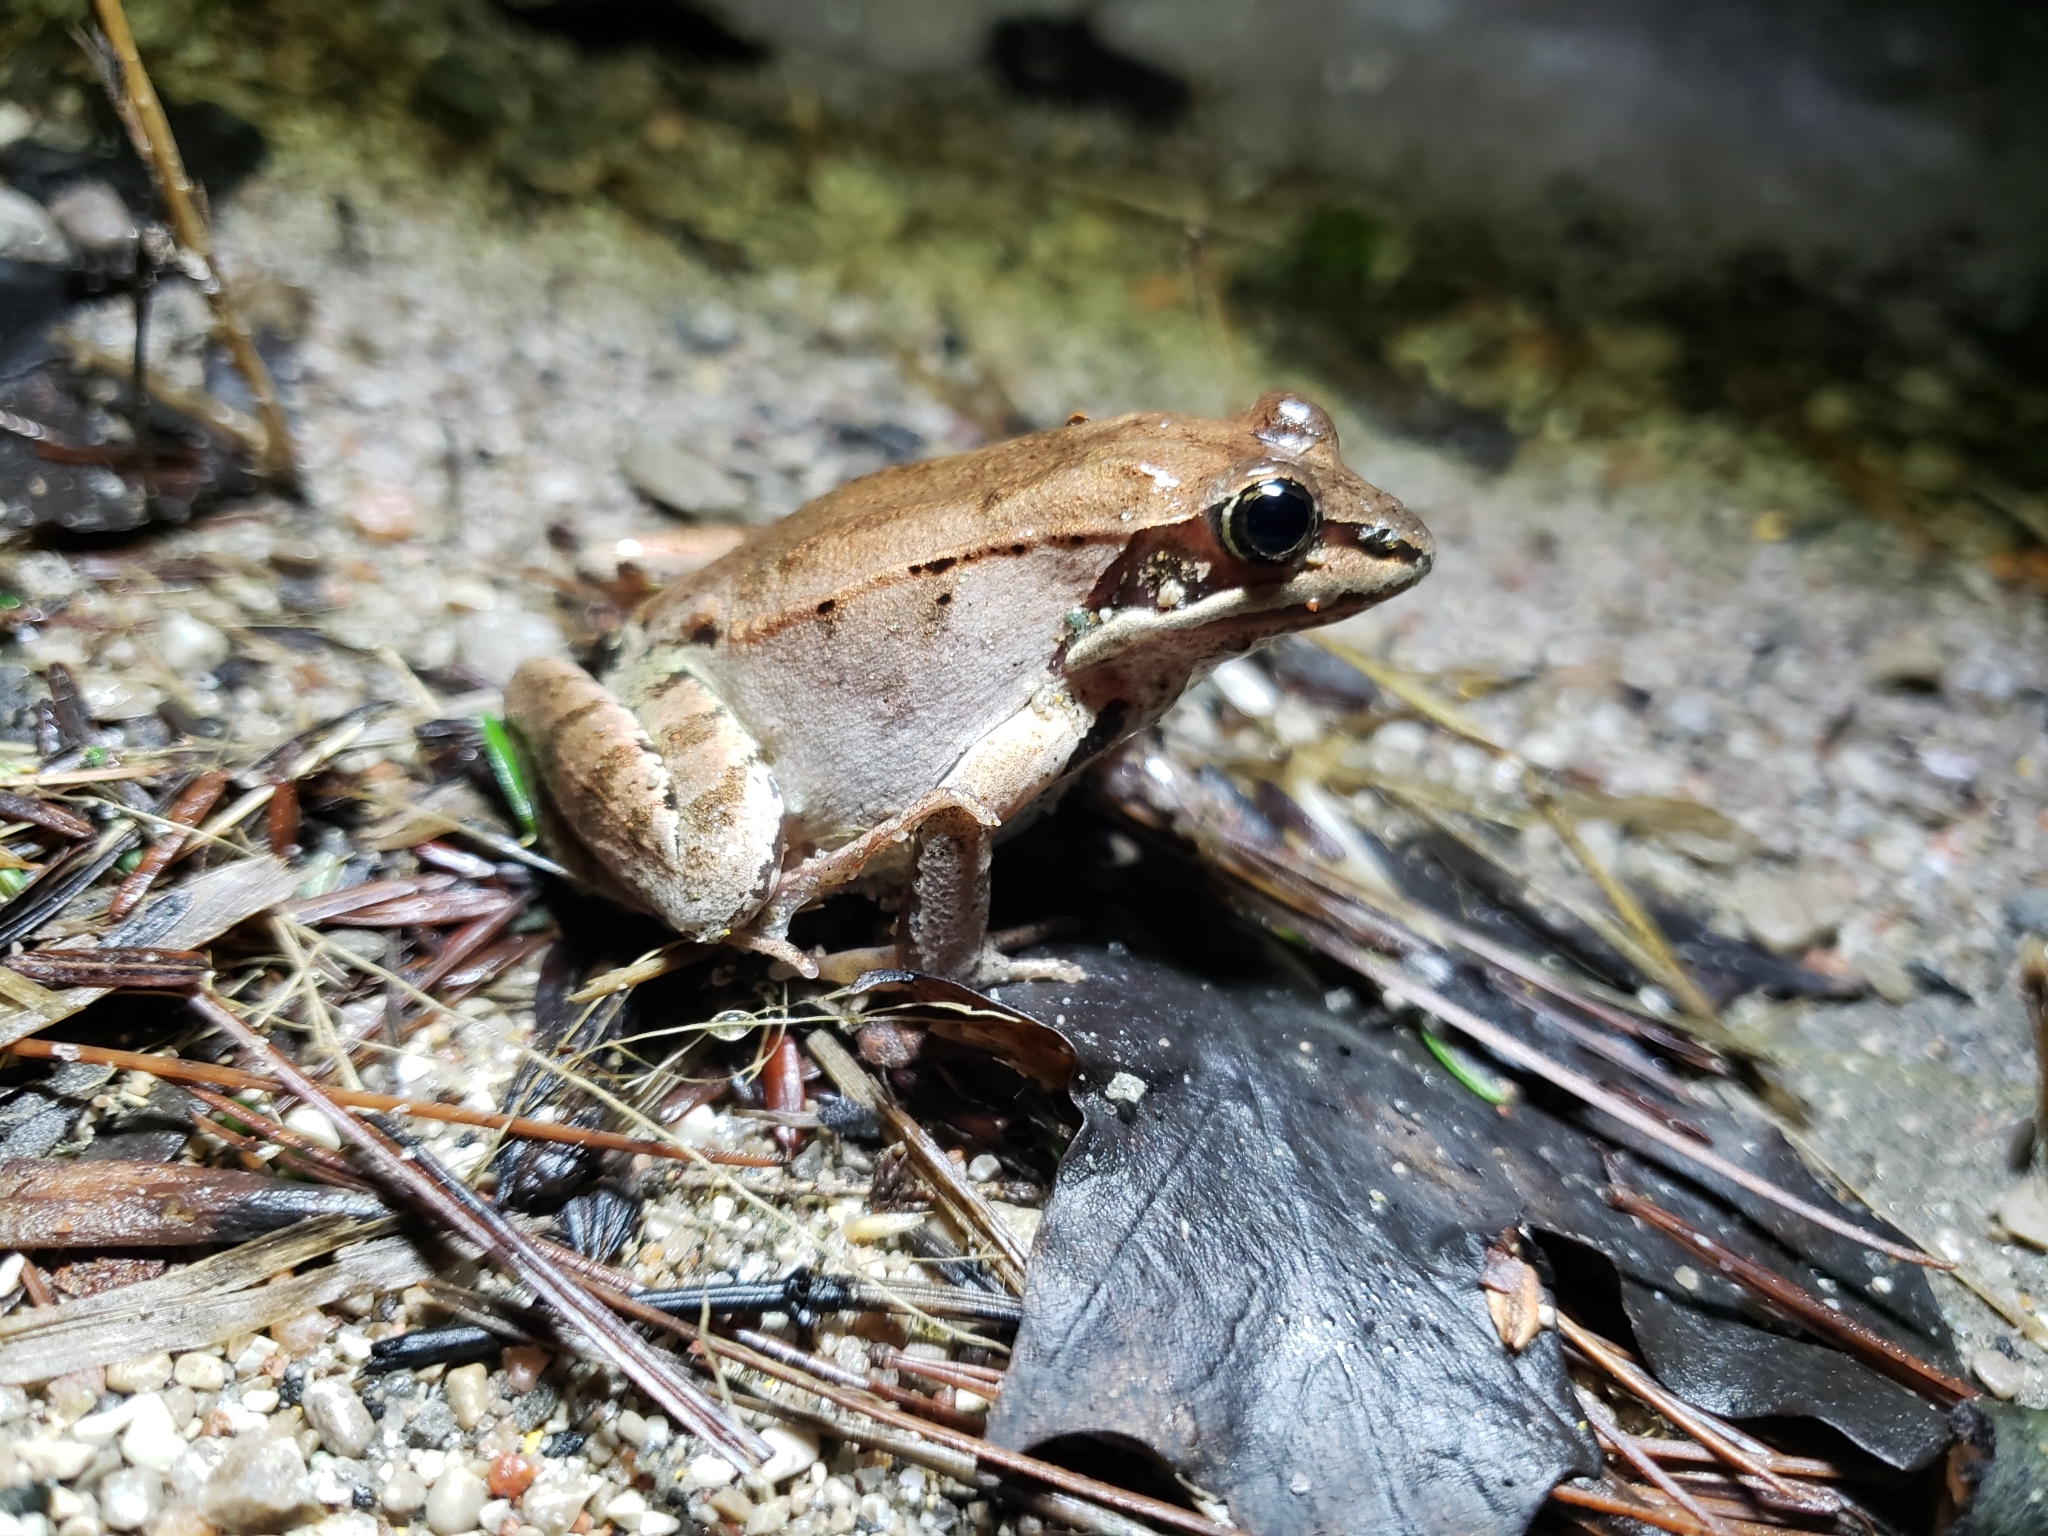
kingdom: Animalia
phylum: Chordata
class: Amphibia
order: Anura
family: Ranidae
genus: Lithobates
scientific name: Lithobates sylvaticus
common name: Wood frog
